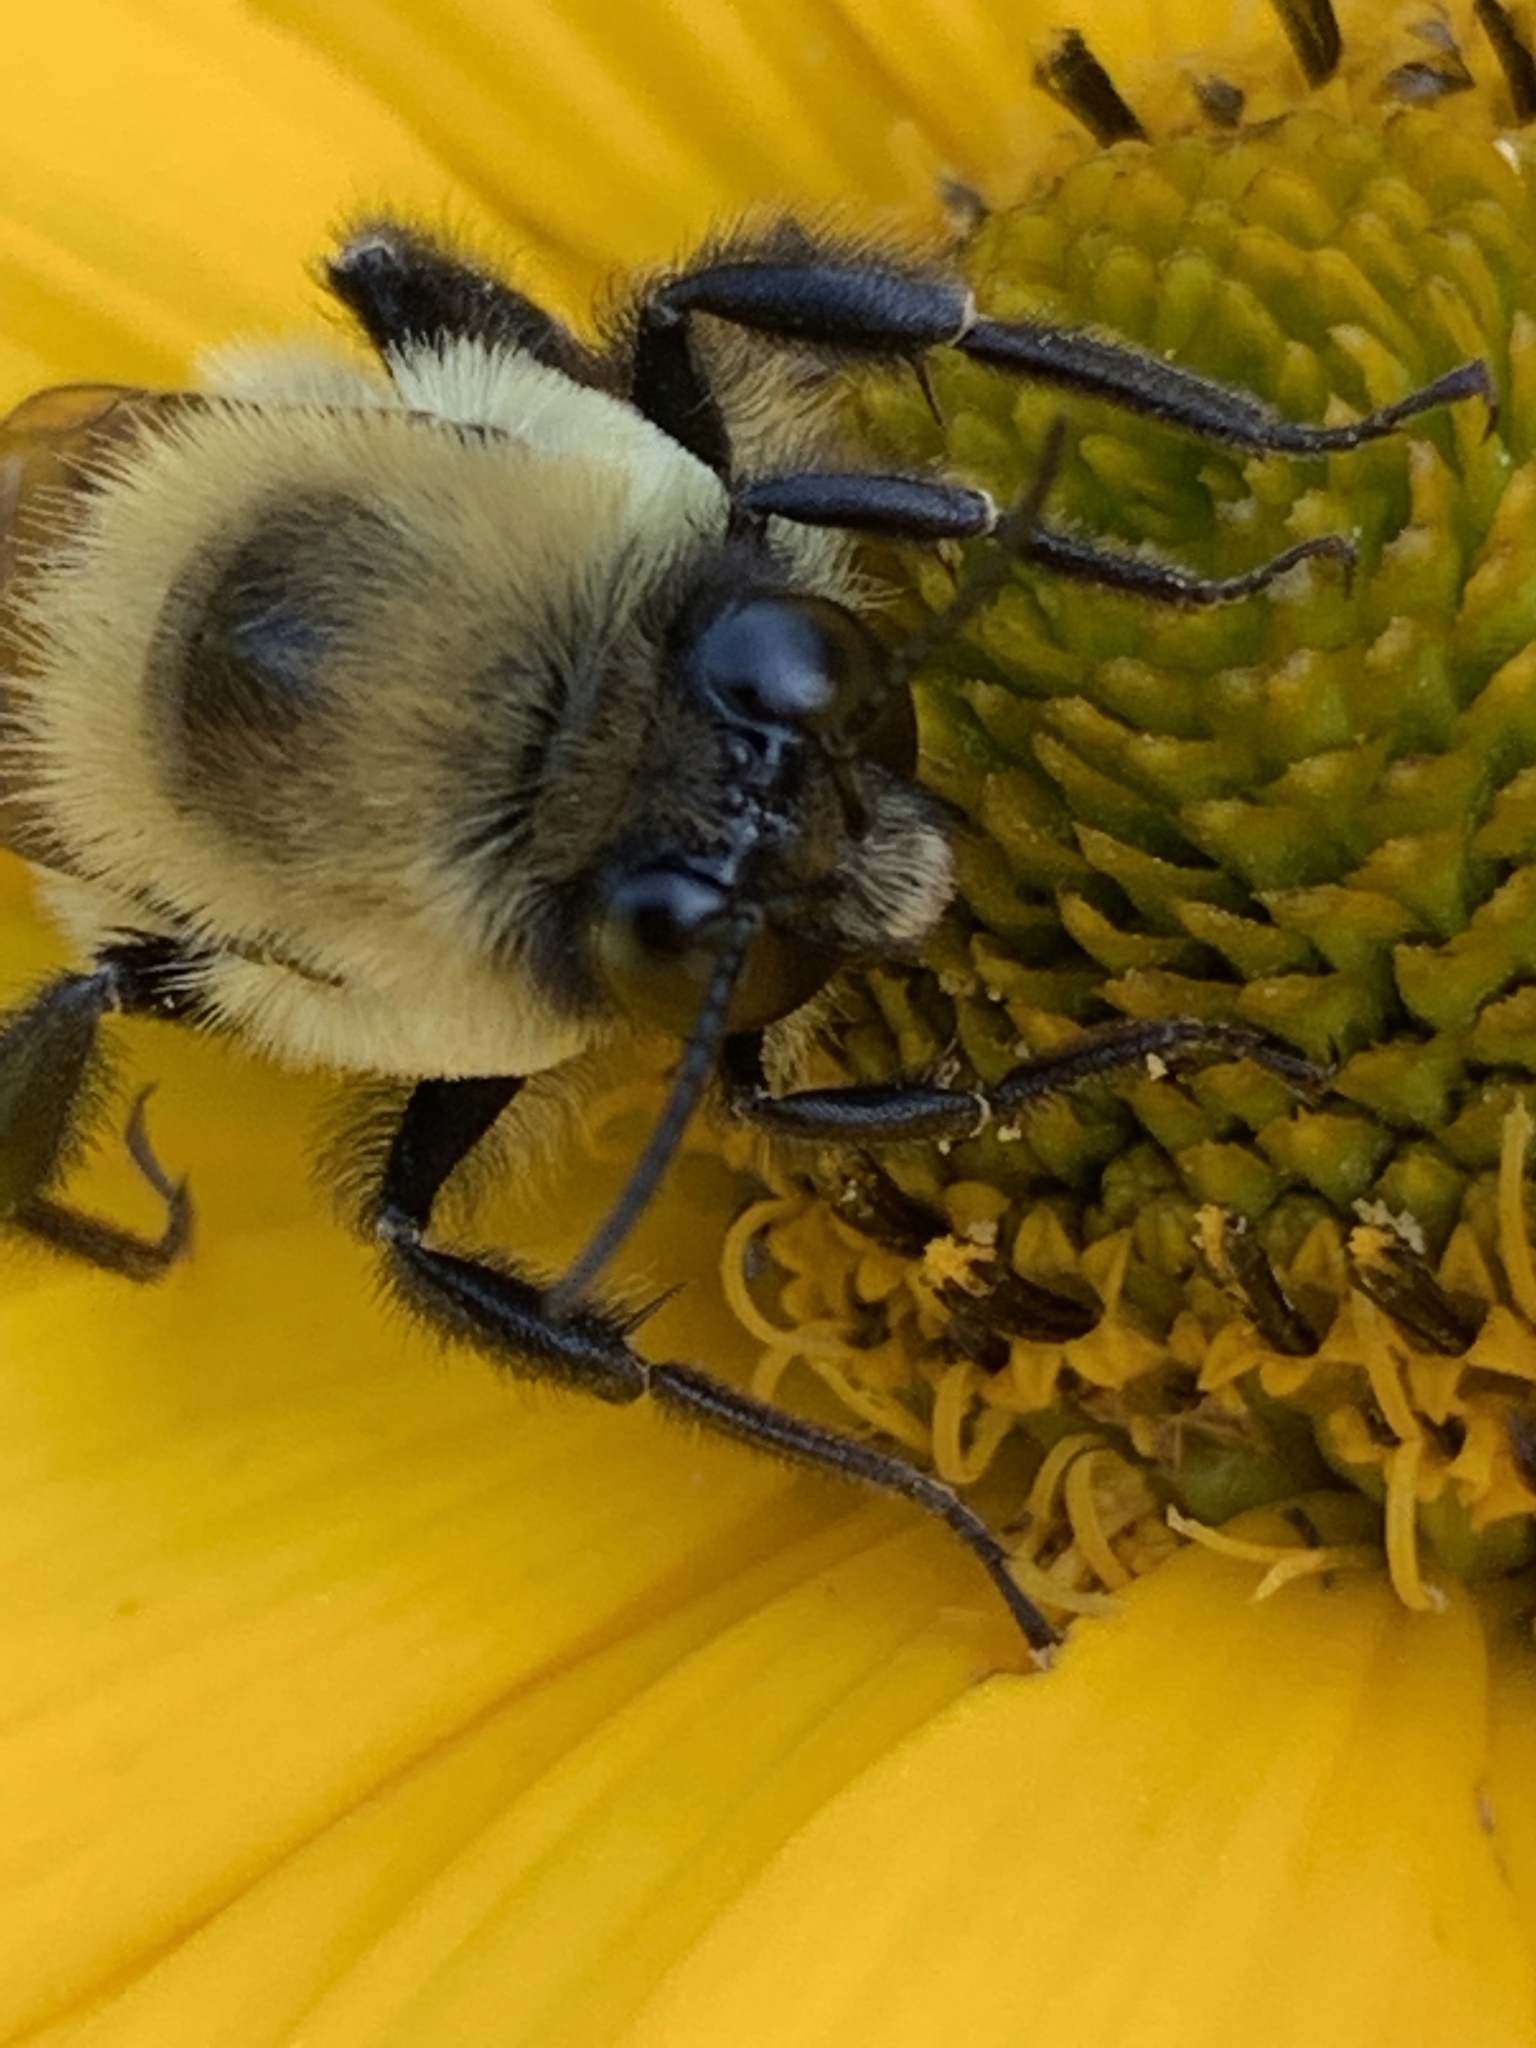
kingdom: Animalia
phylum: Arthropoda
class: Insecta
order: Hymenoptera
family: Apidae
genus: Bombus
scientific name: Bombus griseocollis
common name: Brown-belted bumble bee
